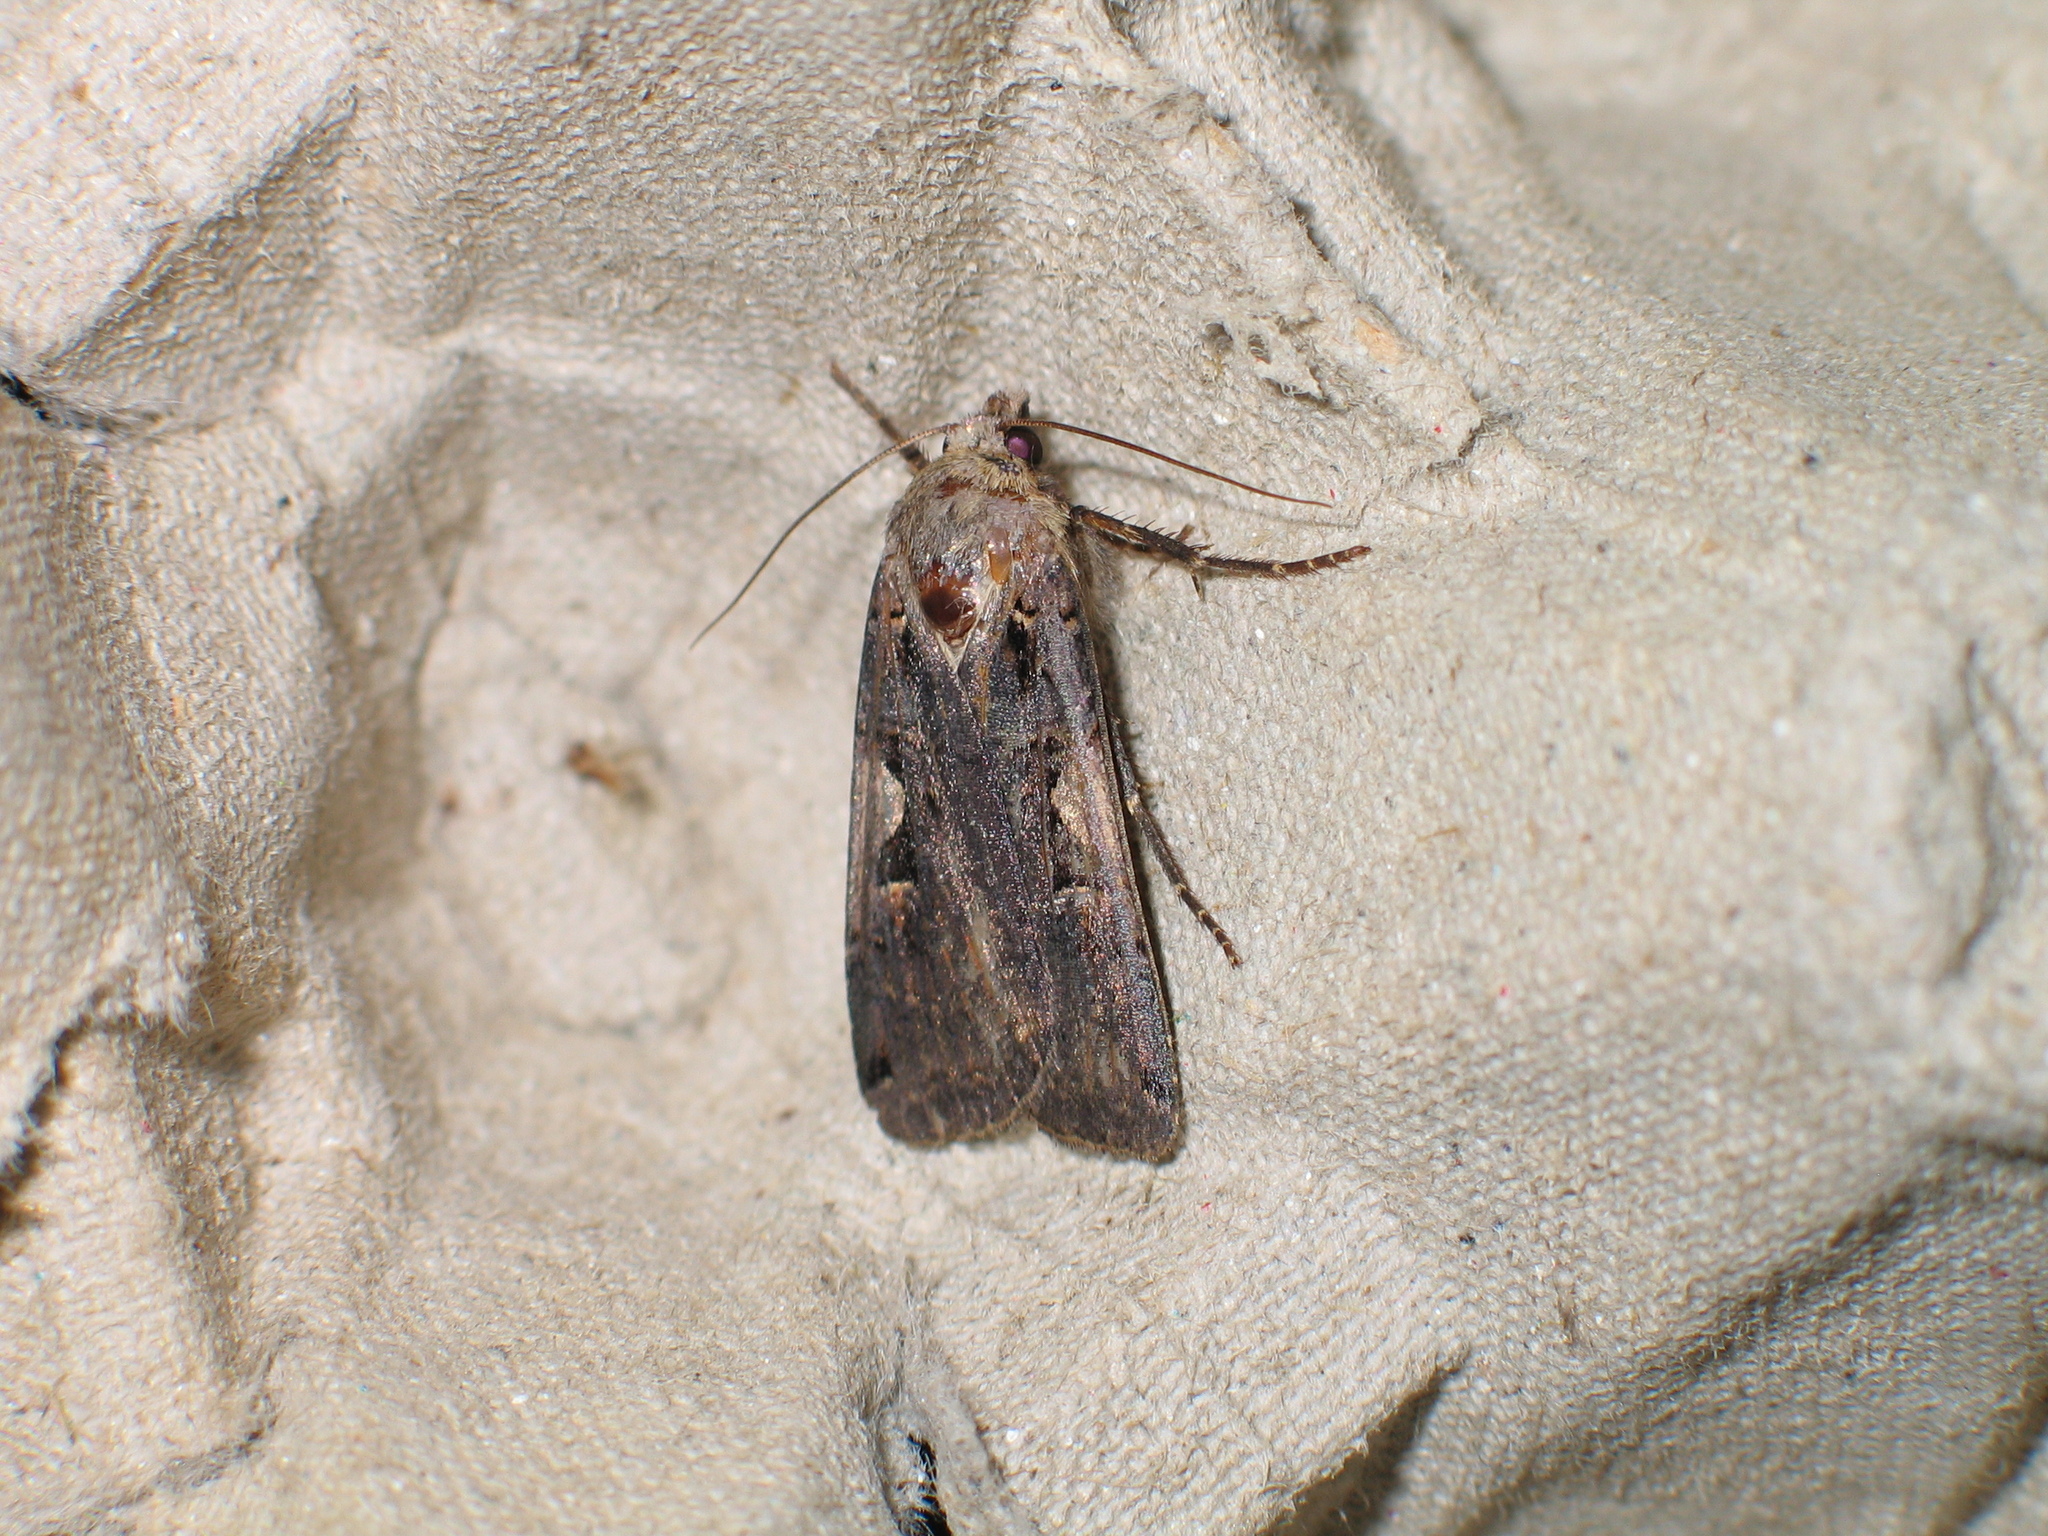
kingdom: Animalia
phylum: Arthropoda
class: Insecta
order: Lepidoptera
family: Noctuidae
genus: Xestia
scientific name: Xestia c-nigrum
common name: Setaceous hebrew character
